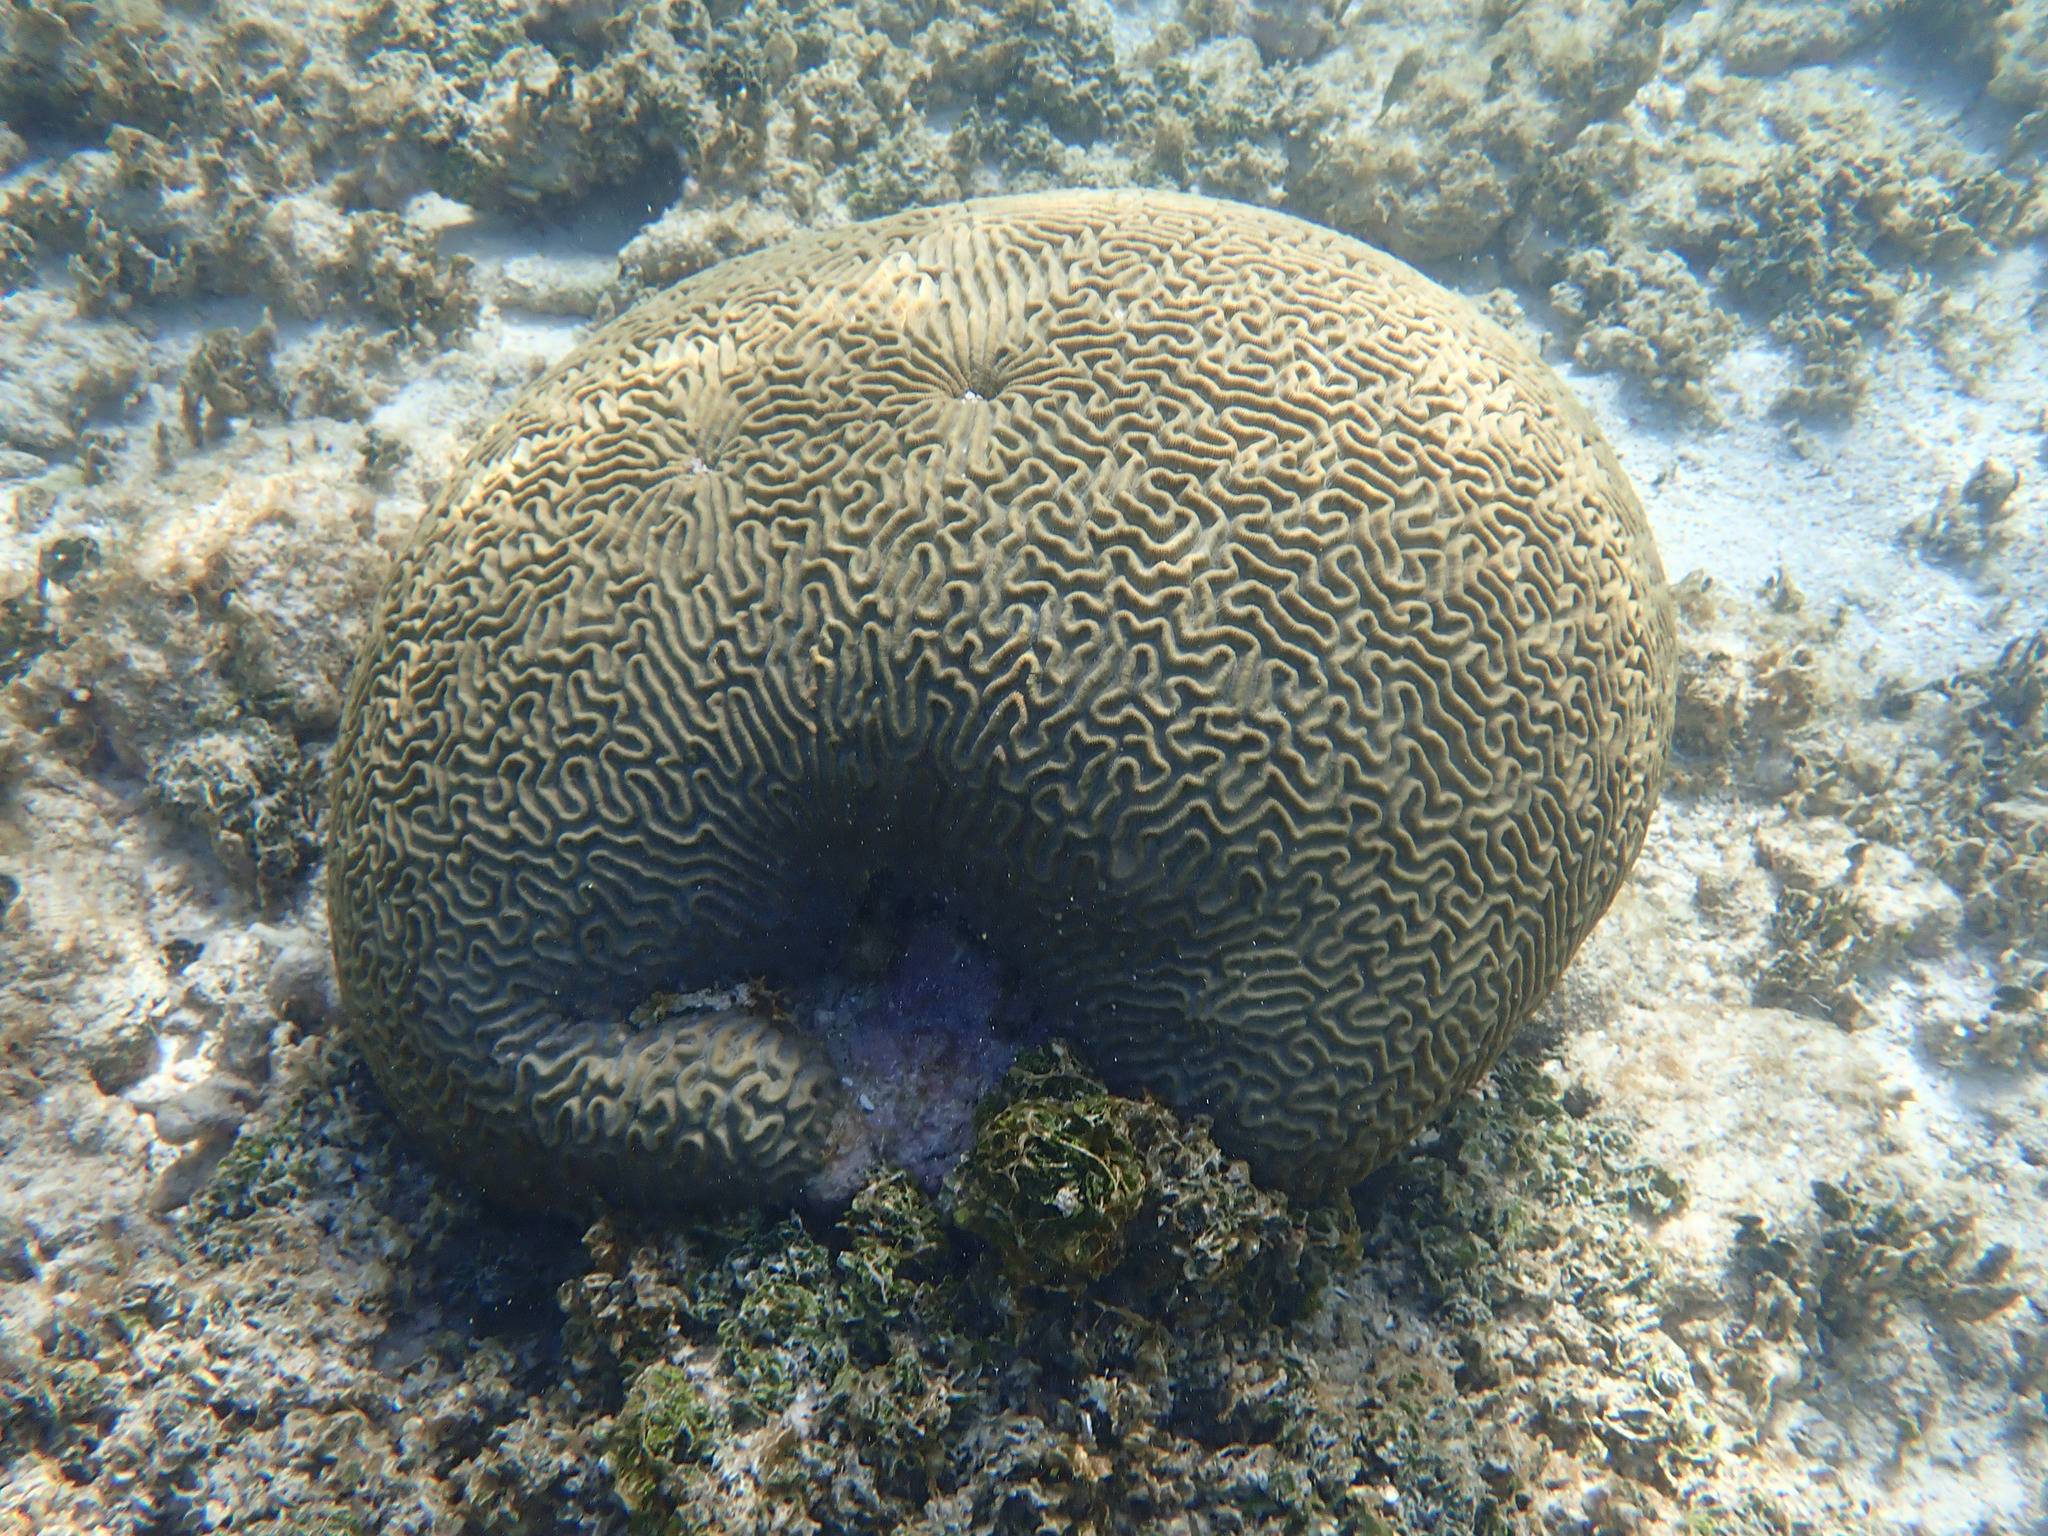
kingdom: Animalia
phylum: Cnidaria
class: Anthozoa
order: Scleractinia
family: Faviidae
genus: Pseudodiploria
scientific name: Pseudodiploria strigosa
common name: Symmetrical brain coral
